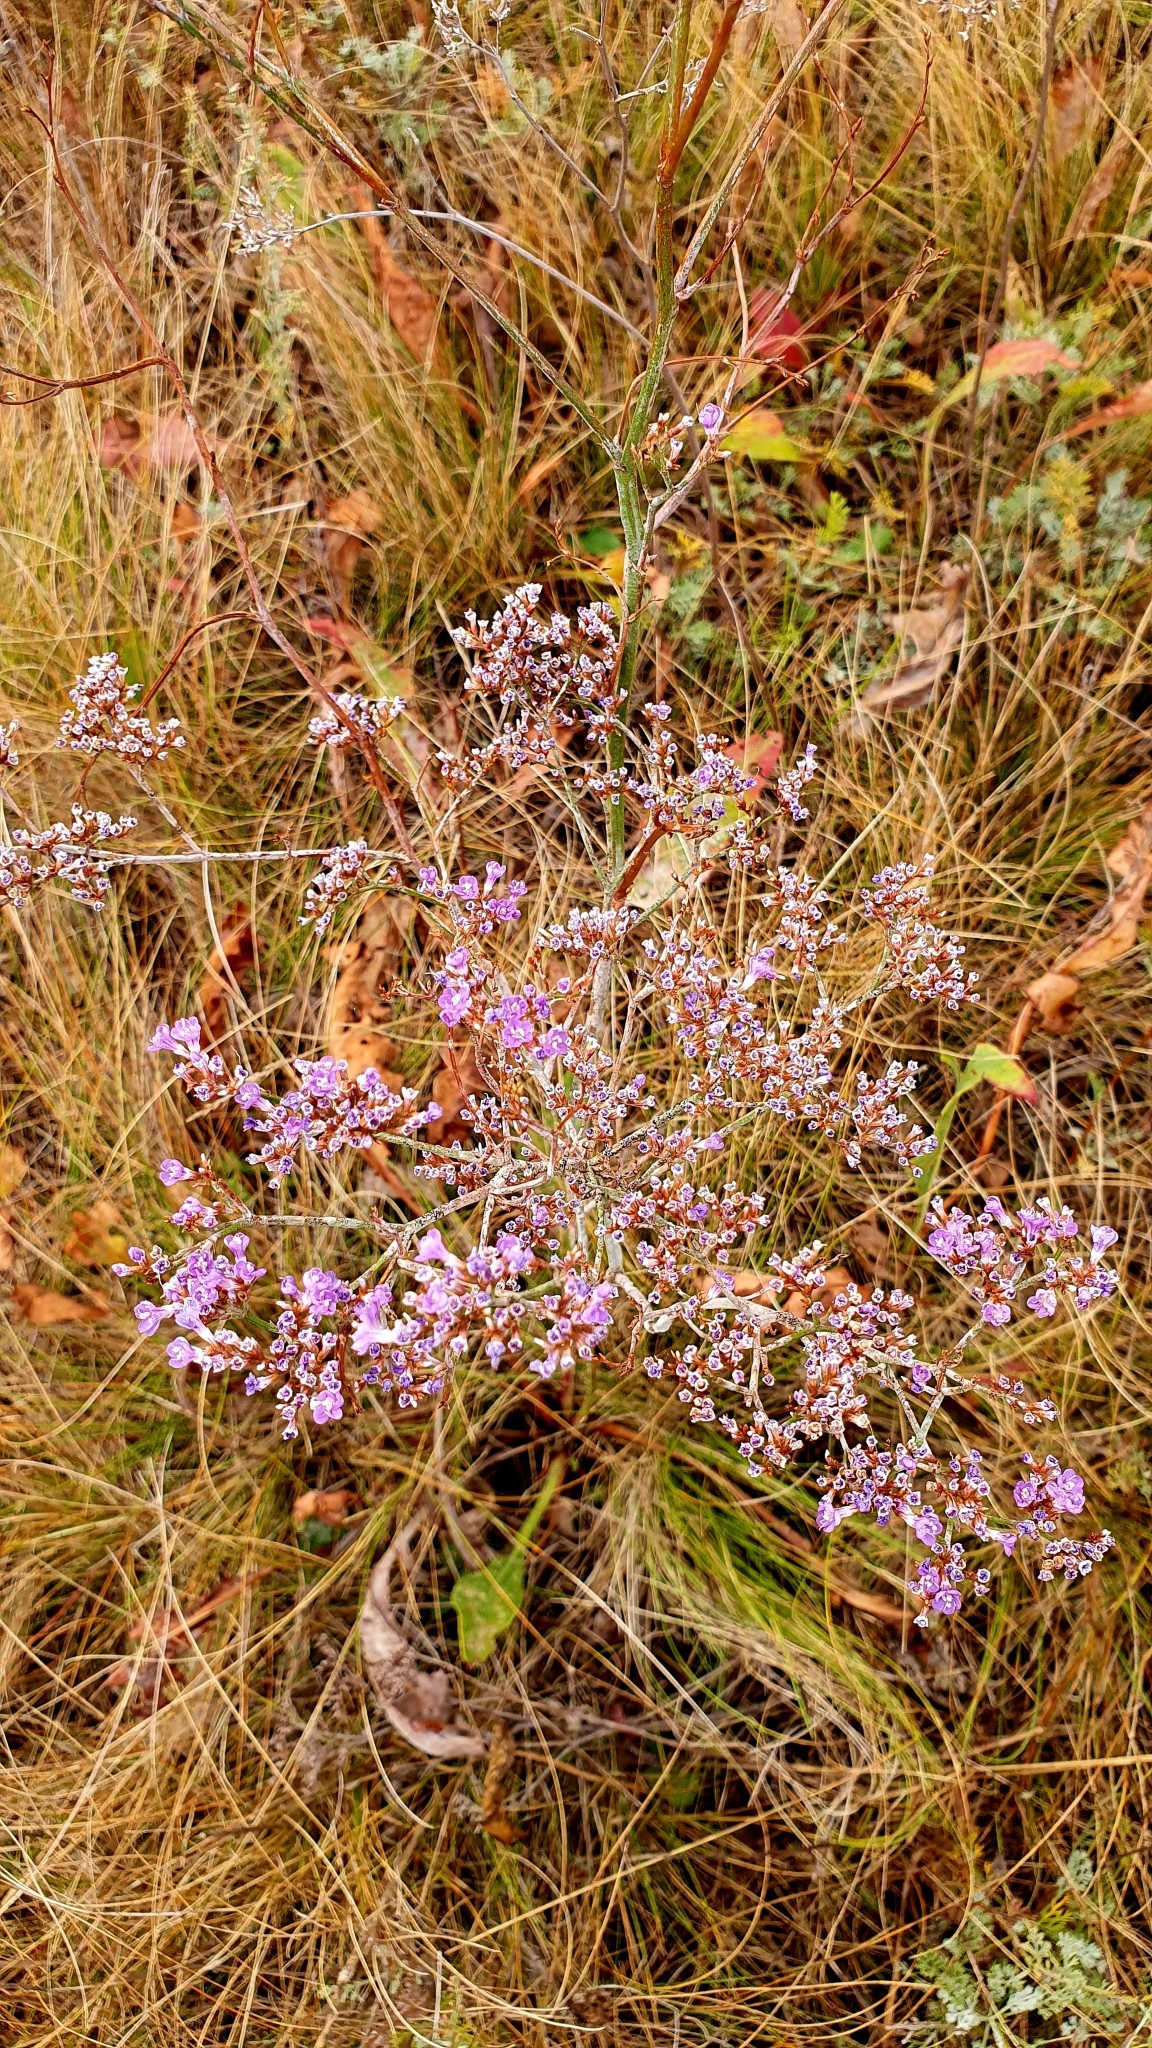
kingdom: Plantae
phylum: Tracheophyta
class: Magnoliopsida
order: Caryophyllales
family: Plumbaginaceae
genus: Limonium
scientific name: Limonium gmelini
